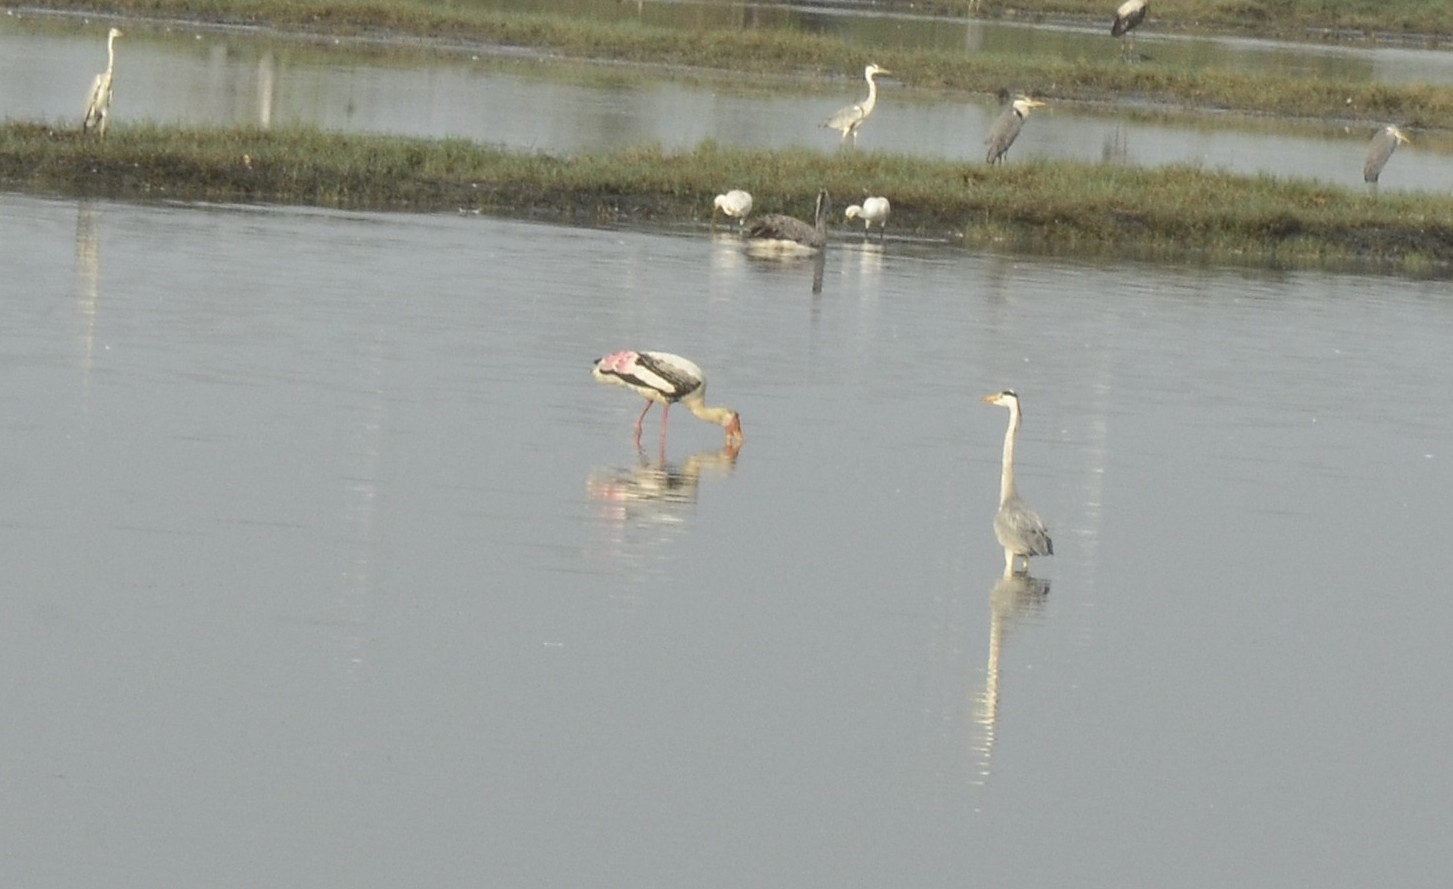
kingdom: Animalia
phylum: Chordata
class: Aves
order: Ciconiiformes
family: Ciconiidae
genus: Mycteria
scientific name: Mycteria leucocephala
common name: Painted stork
